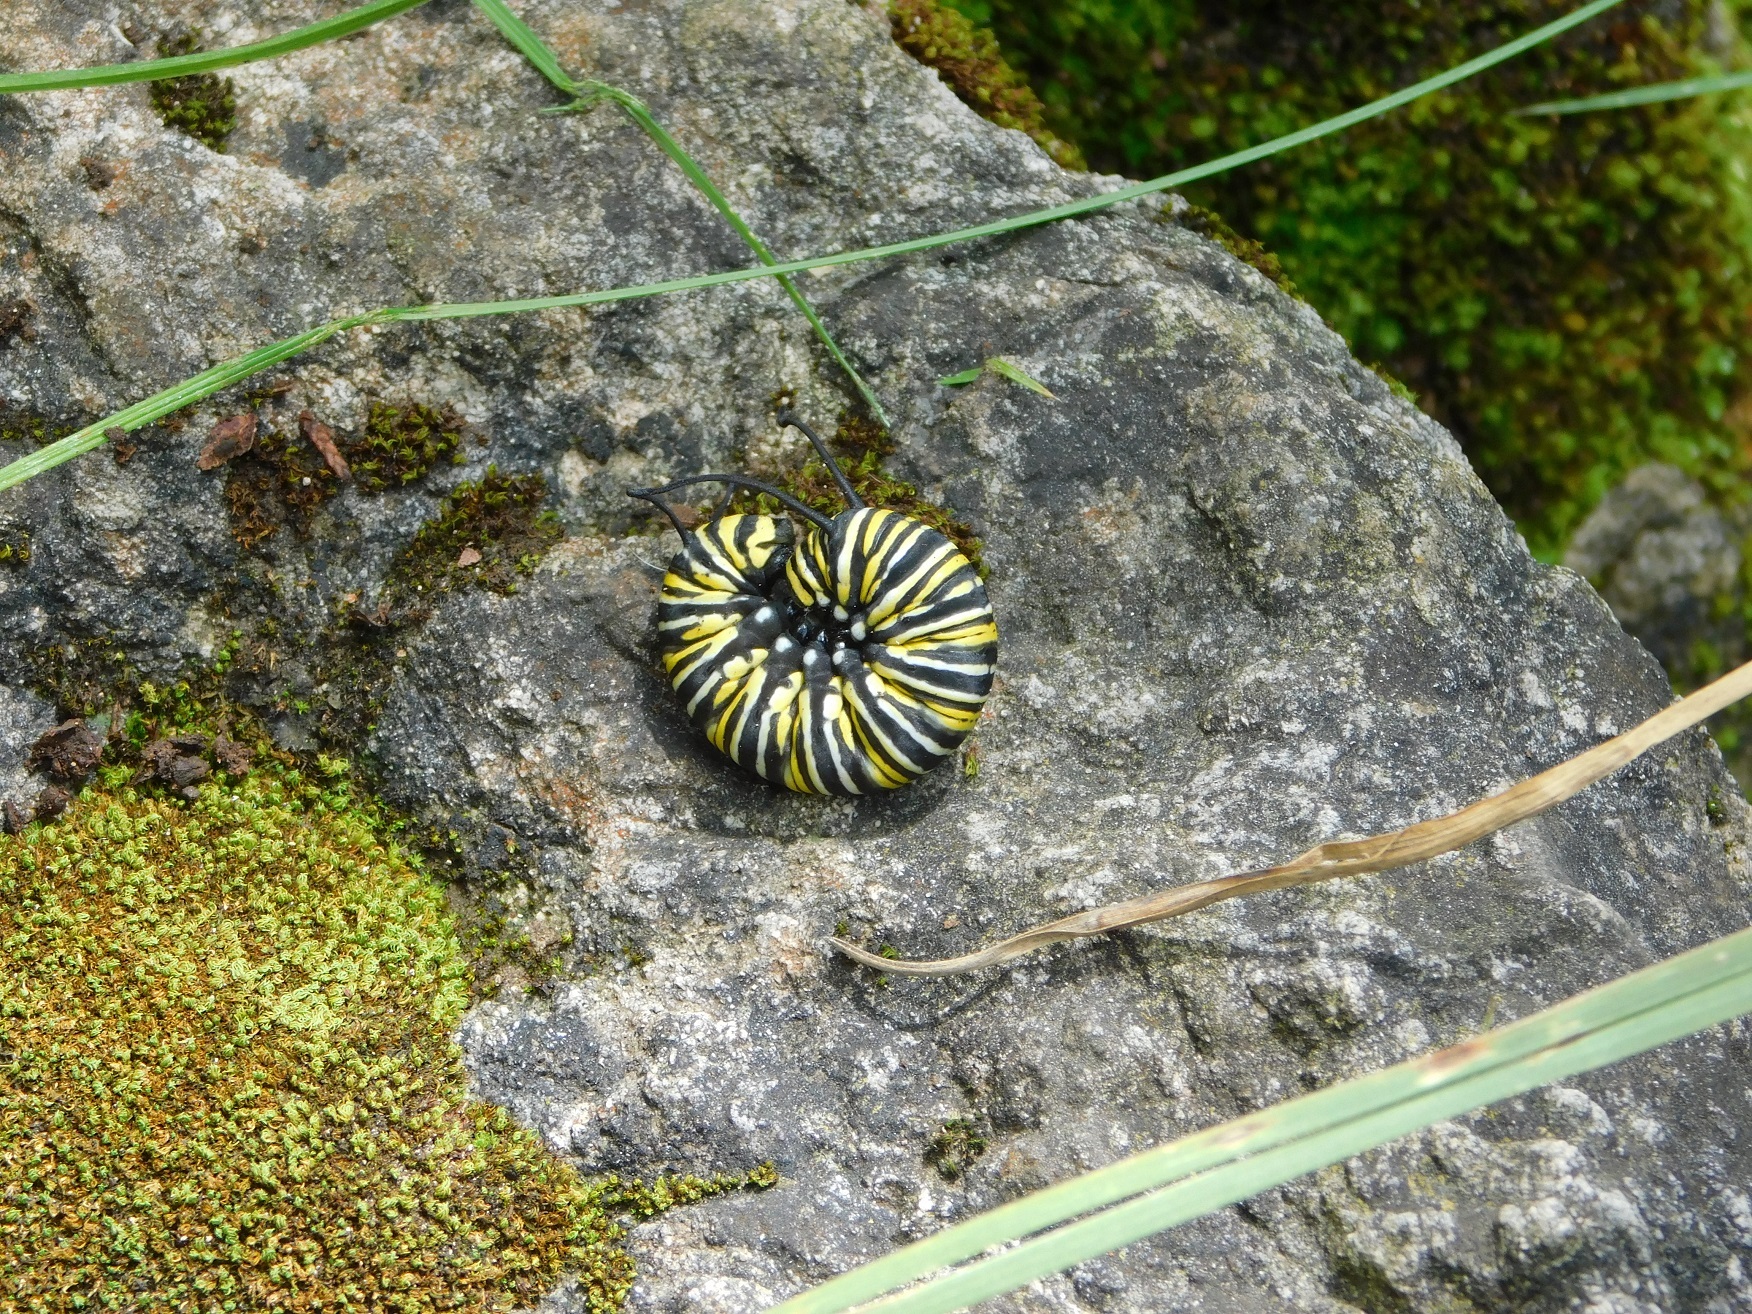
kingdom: Animalia
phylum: Arthropoda
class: Insecta
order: Lepidoptera
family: Nymphalidae
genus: Danaus
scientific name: Danaus plexippus
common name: Monarch
